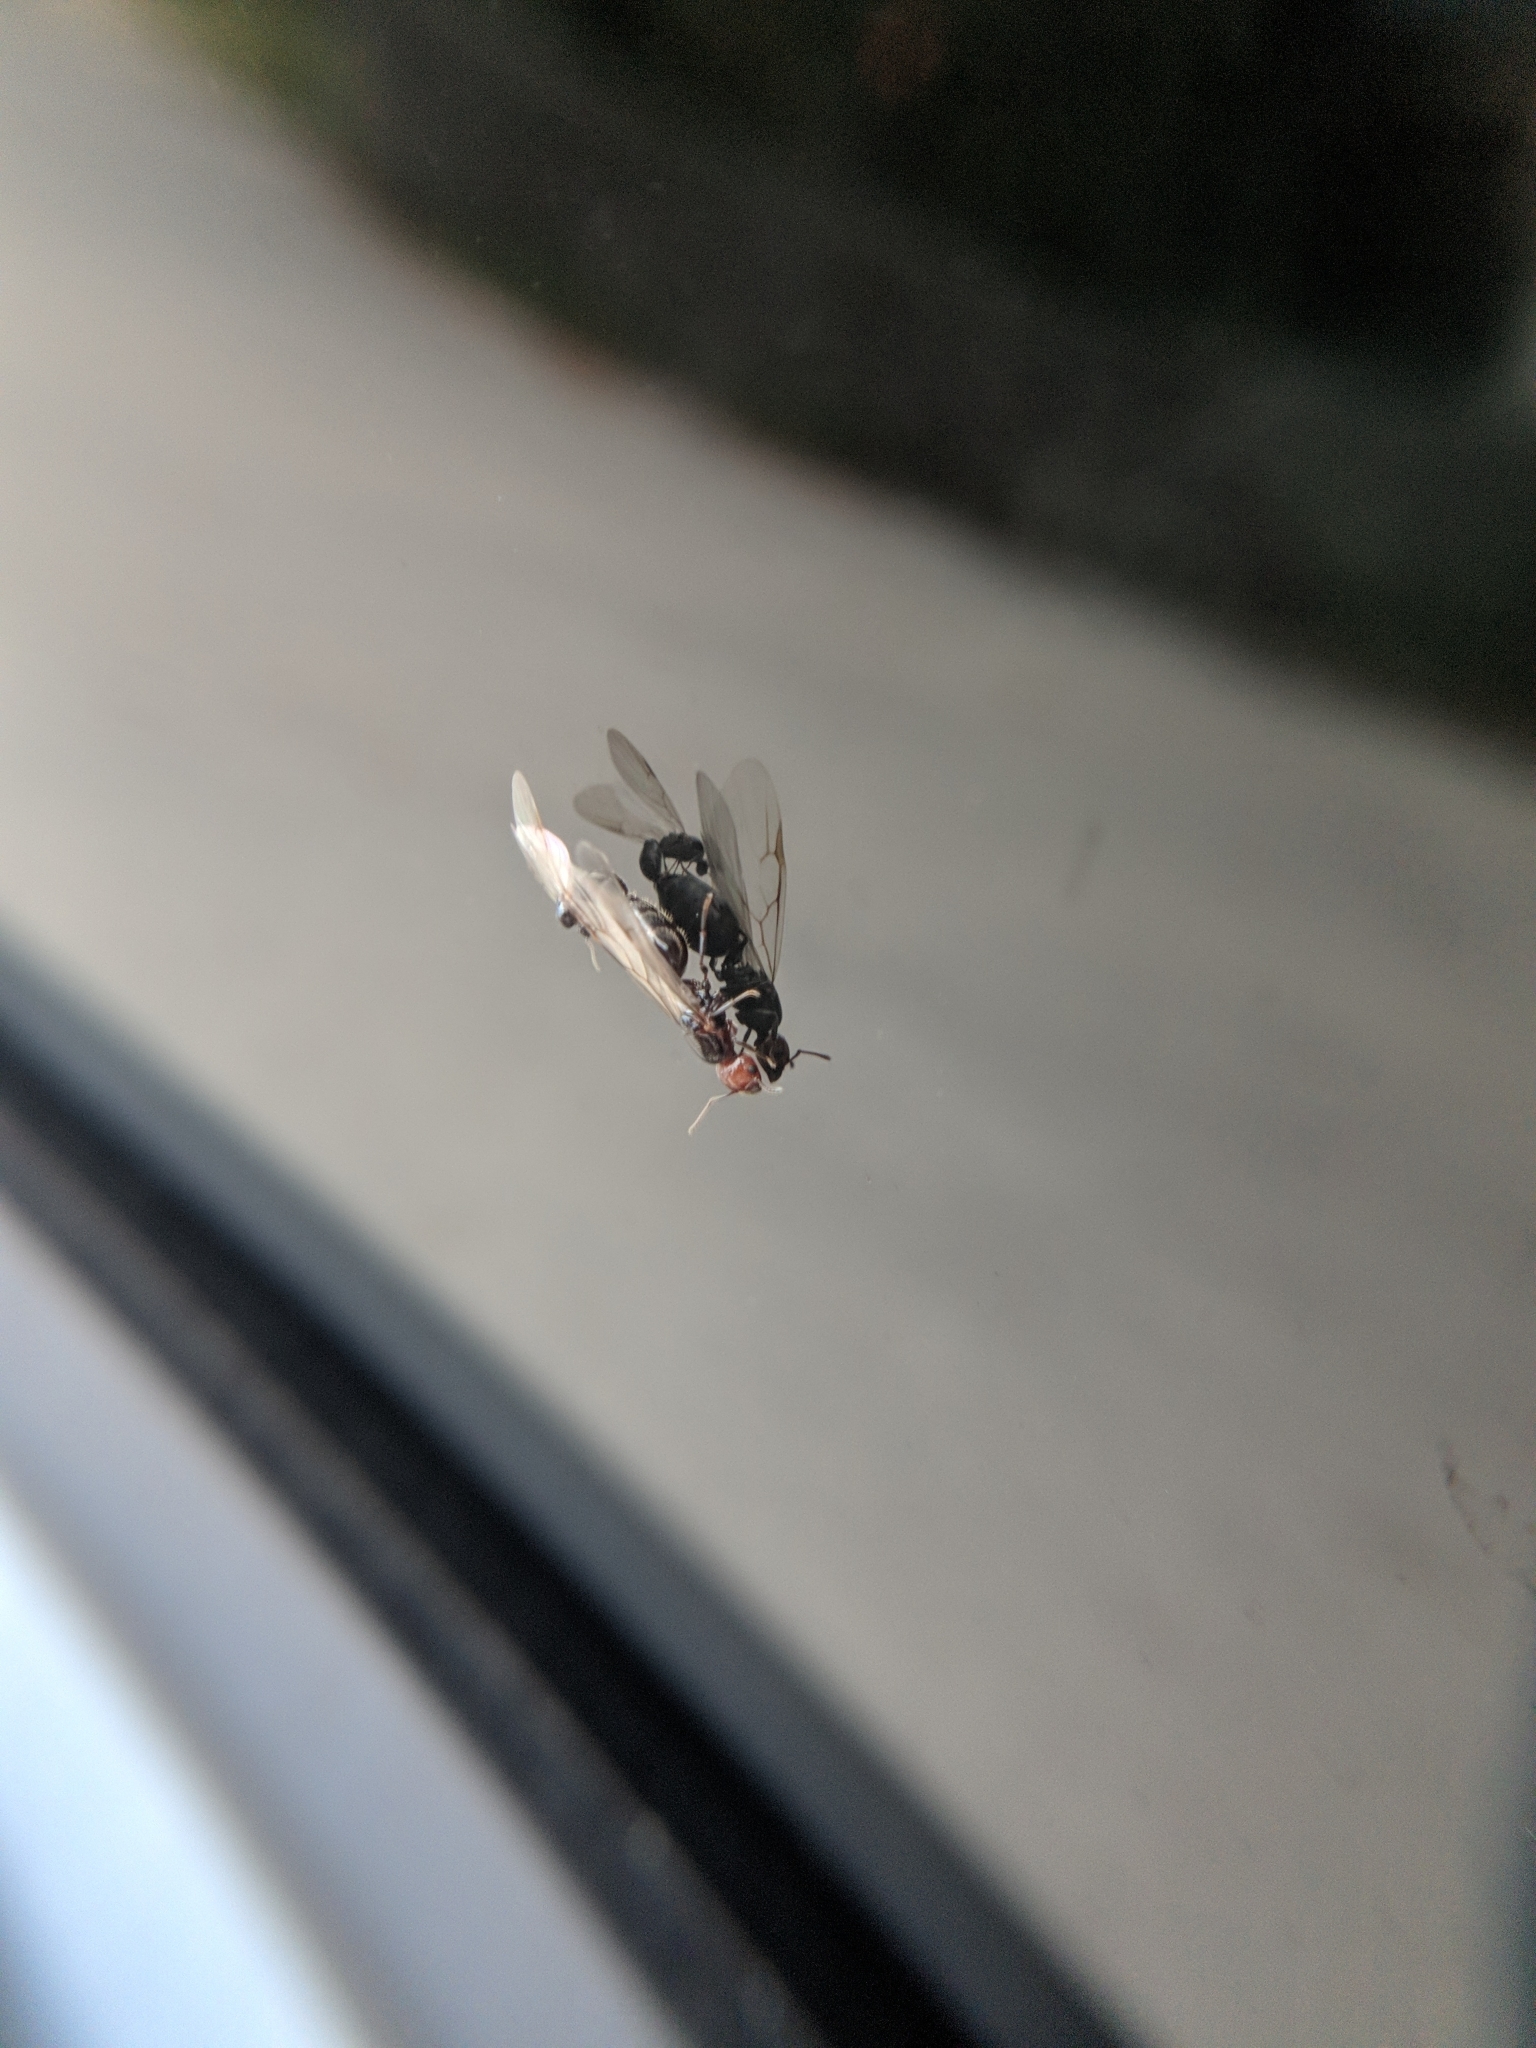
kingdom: Animalia
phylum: Arthropoda
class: Insecta
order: Hymenoptera
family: Formicidae
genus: Crematogaster
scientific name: Crematogaster scutellaris
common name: Fourmi du liège
